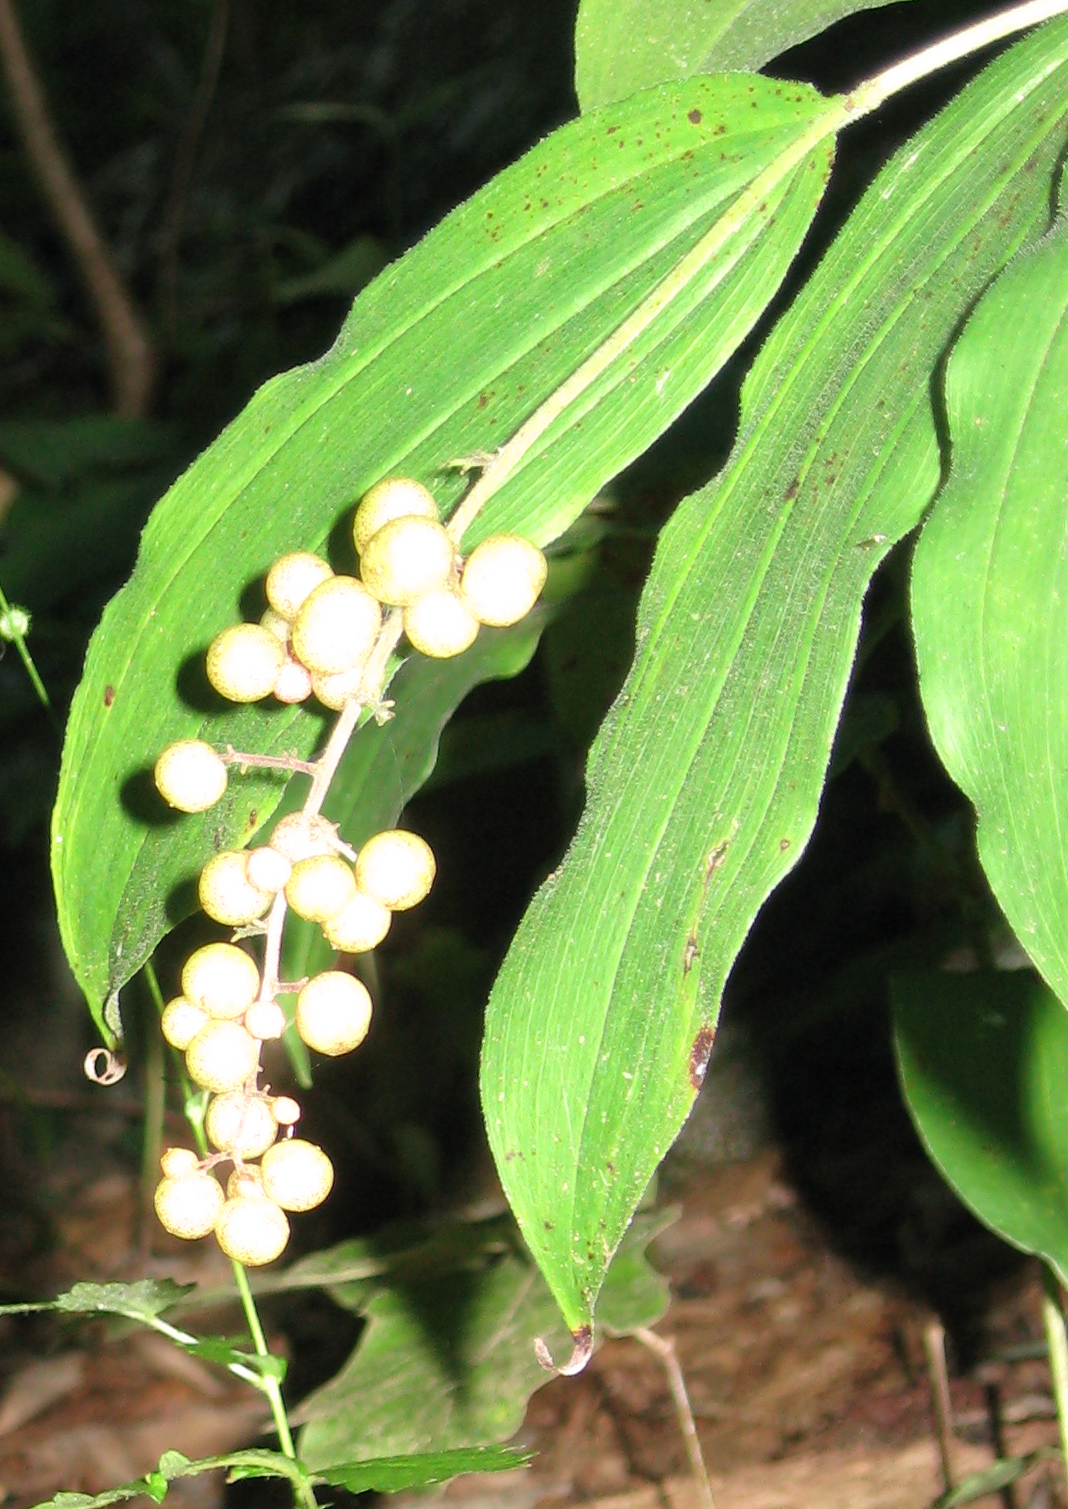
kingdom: Plantae
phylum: Tracheophyta
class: Liliopsida
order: Asparagales
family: Asparagaceae
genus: Maianthemum
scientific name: Maianthemum racemosum
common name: False spikenard
